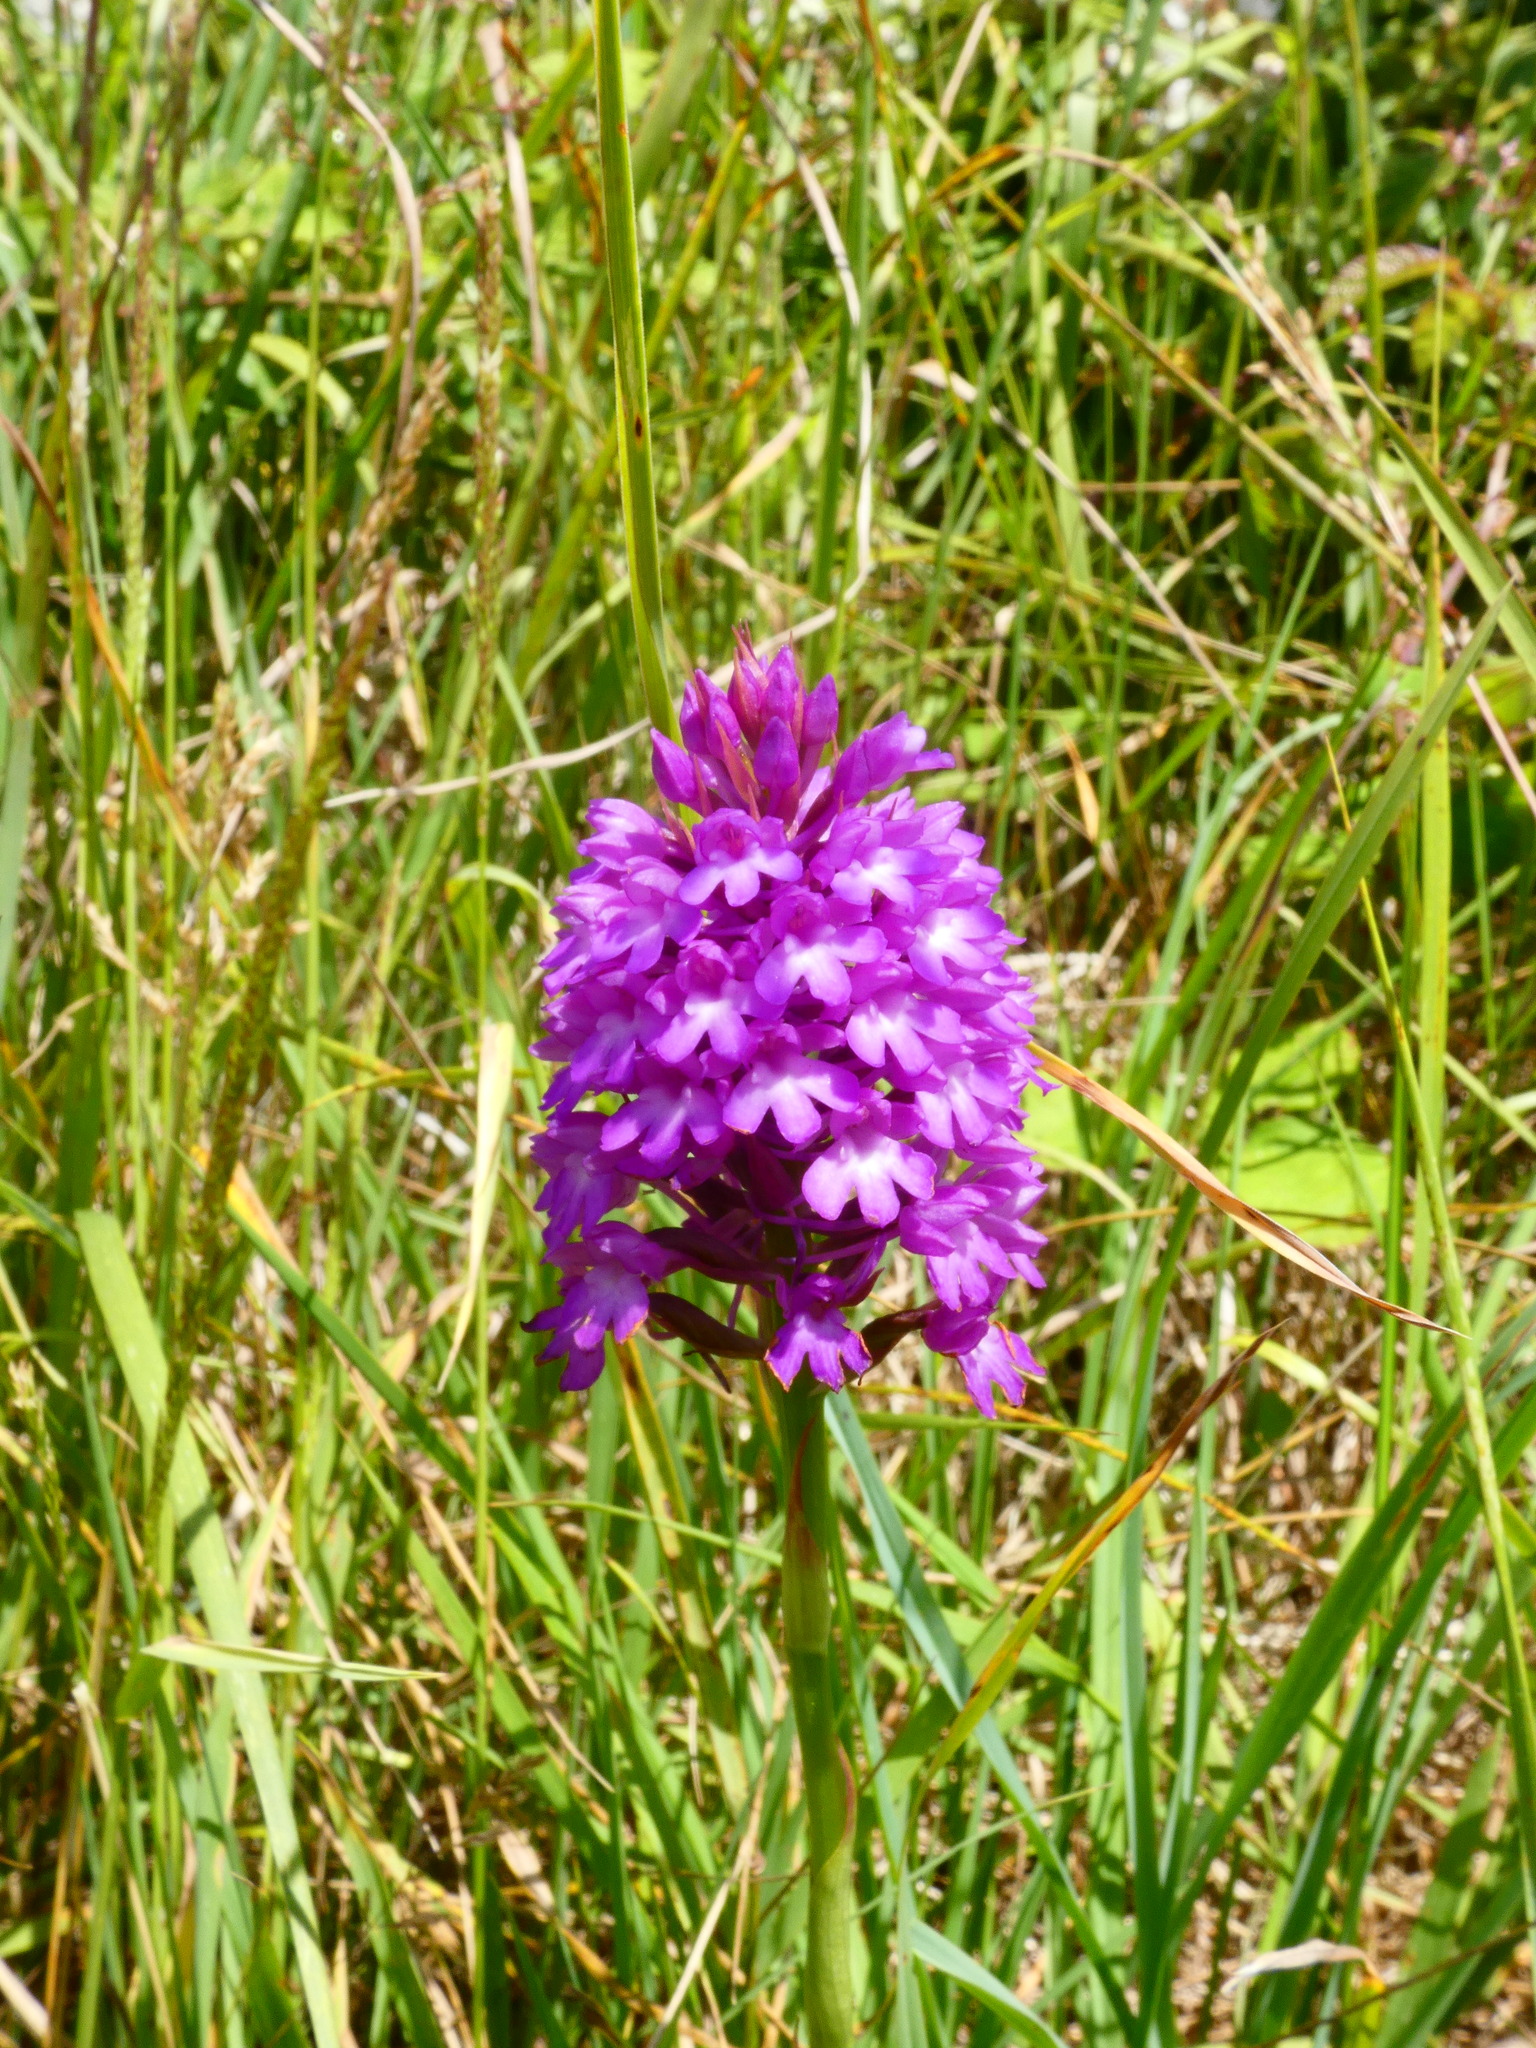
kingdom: Plantae
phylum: Tracheophyta
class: Liliopsida
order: Asparagales
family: Orchidaceae
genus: Anacamptis
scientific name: Anacamptis pyramidalis
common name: Pyramidal orchid
